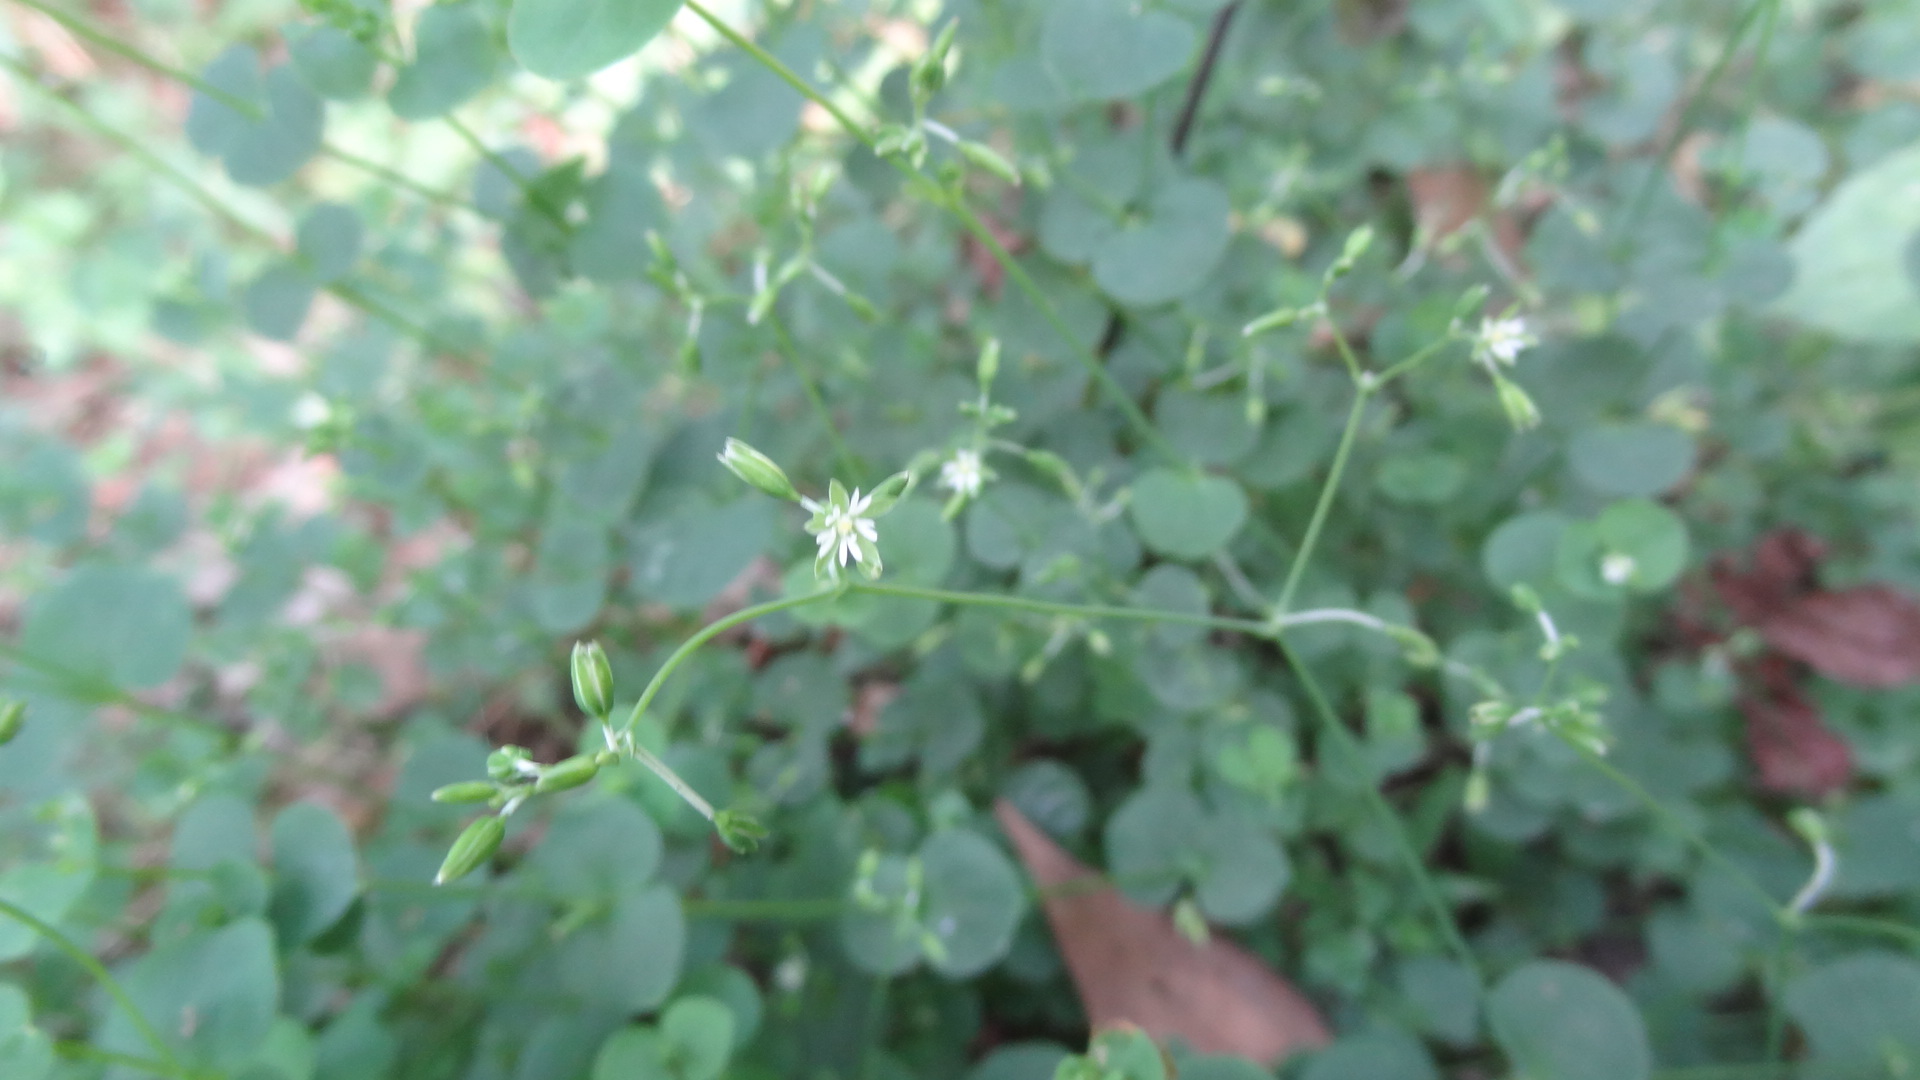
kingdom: Plantae
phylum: Tracheophyta
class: Magnoliopsida
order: Caryophyllales
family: Caryophyllaceae
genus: Drymaria
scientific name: Drymaria cordata
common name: Whitesnow
